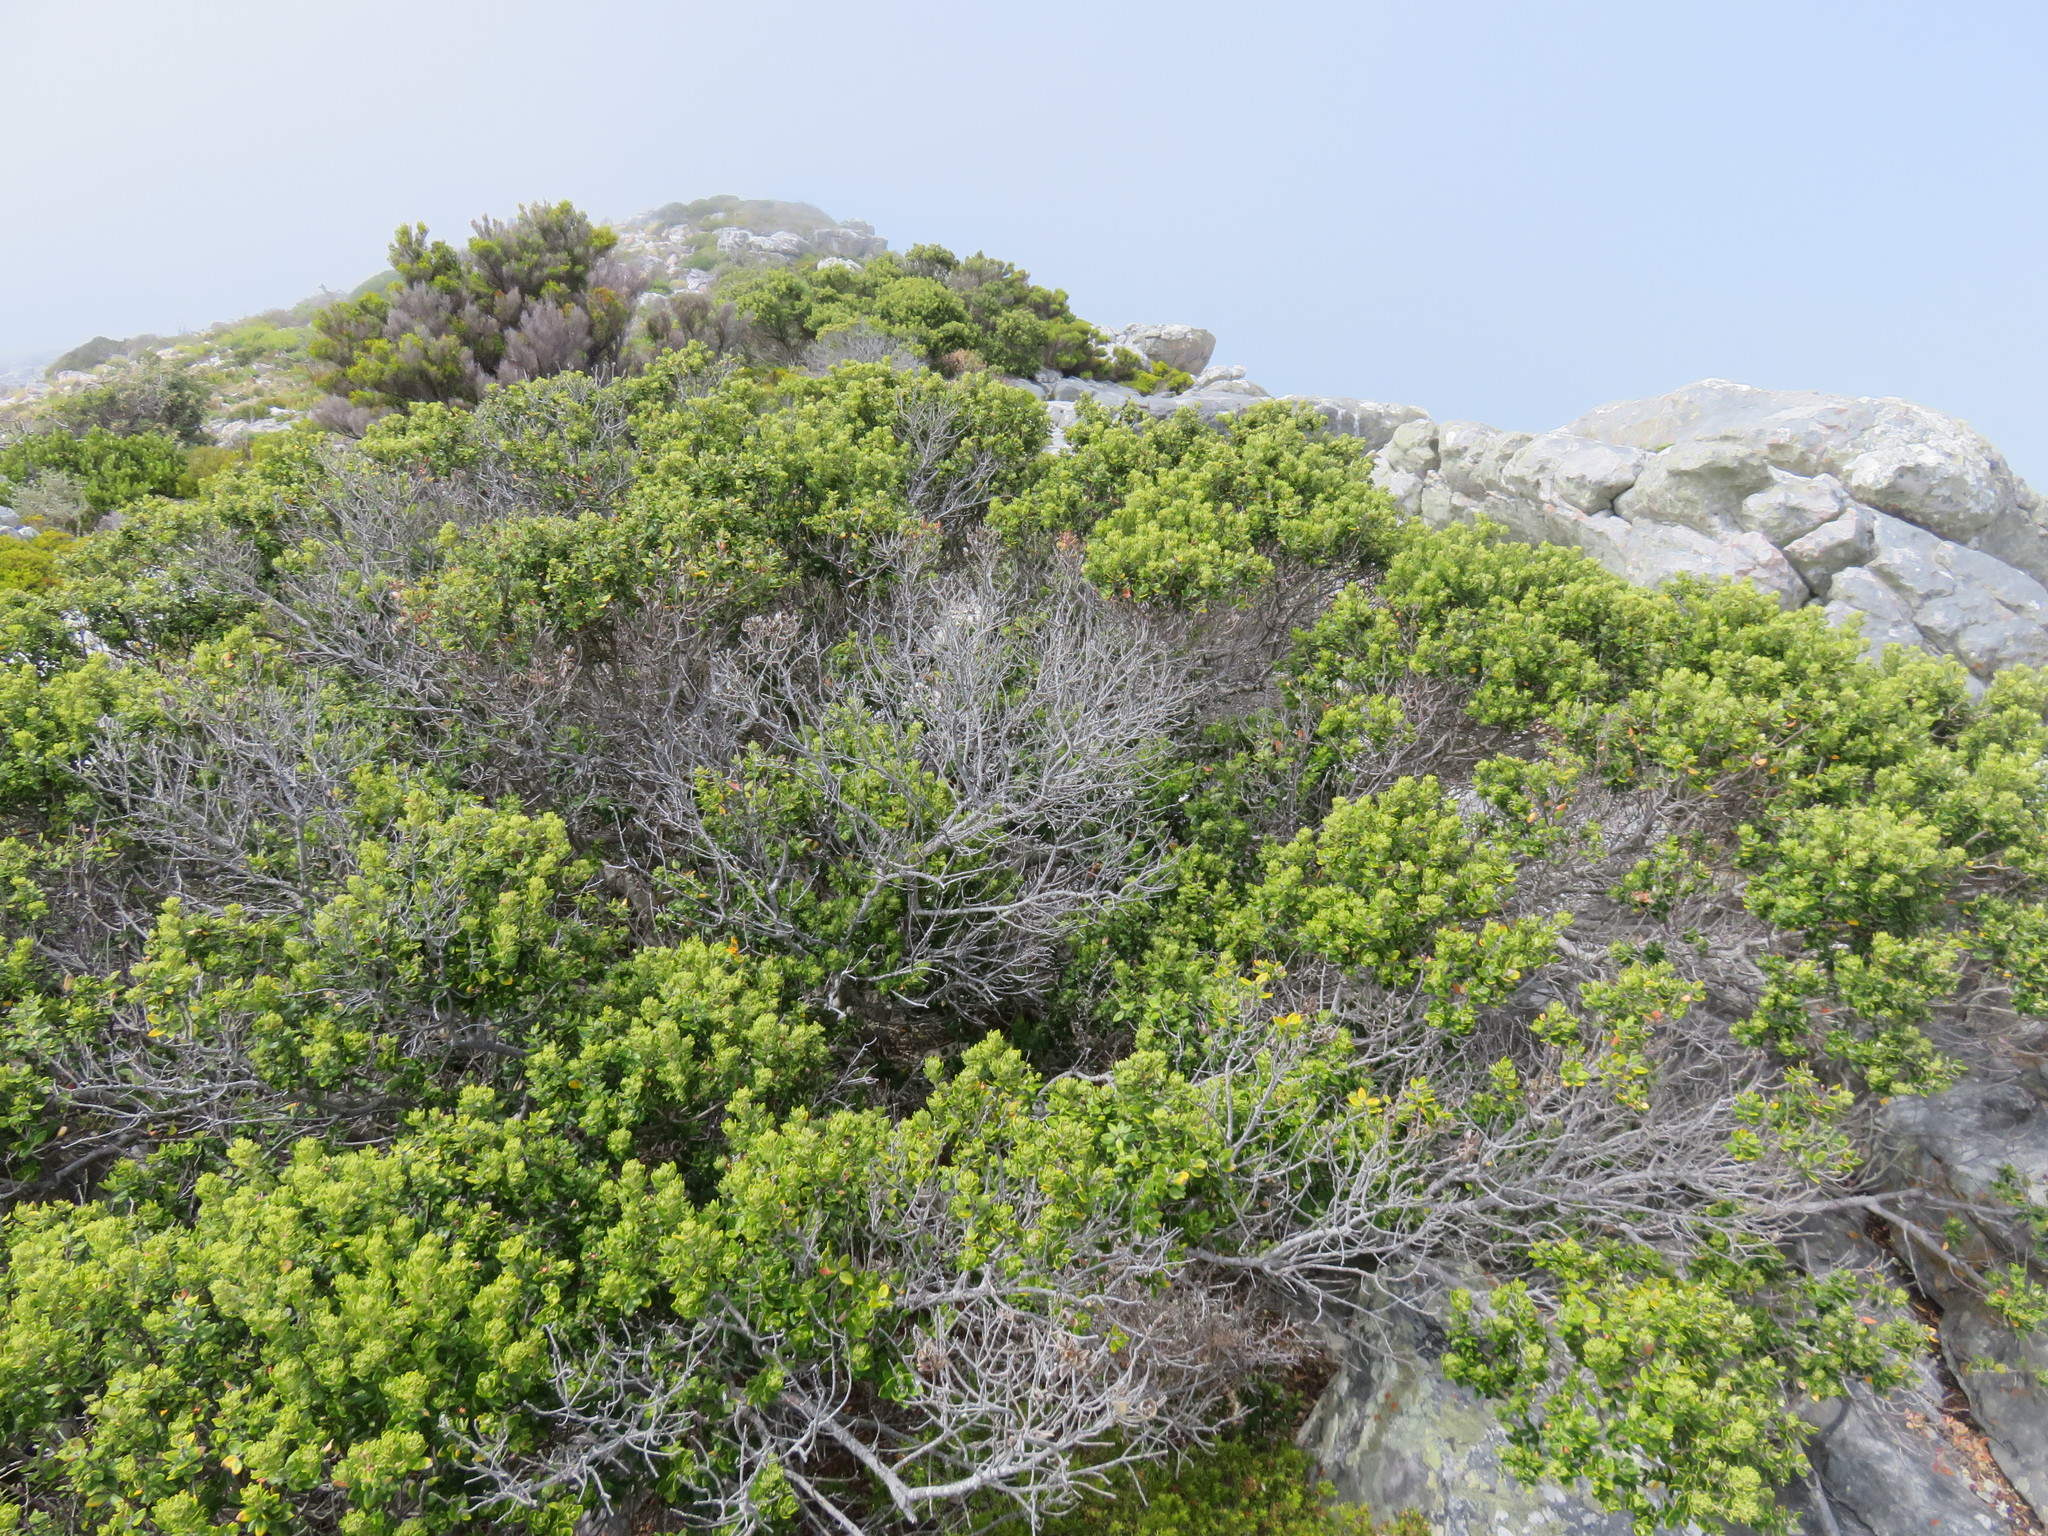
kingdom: Plantae
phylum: Tracheophyta
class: Magnoliopsida
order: Rosales
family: Rhamnaceae
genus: Phylica
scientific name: Phylica buxifolia
